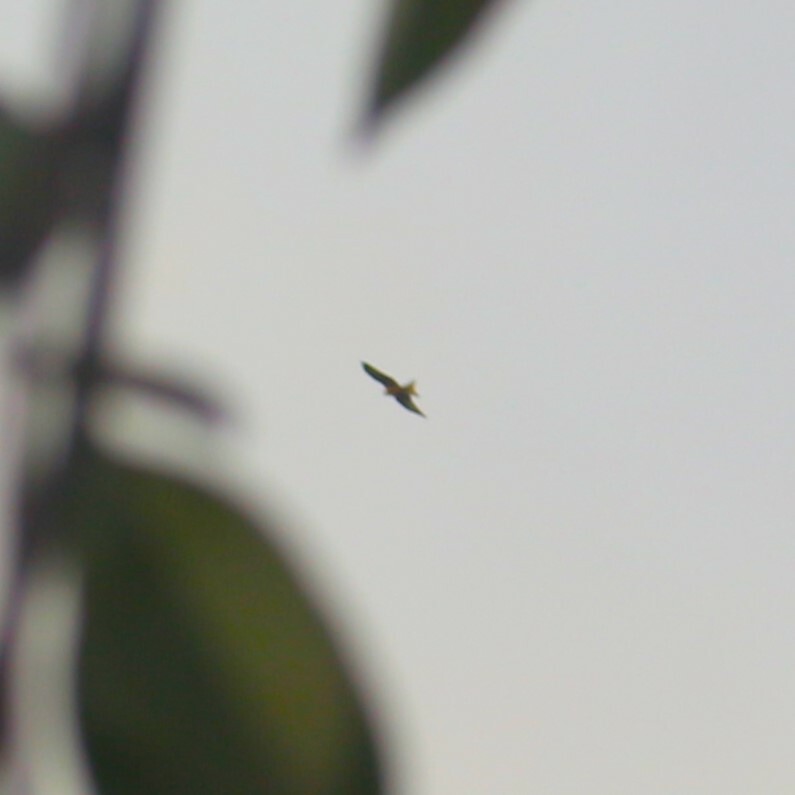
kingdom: Animalia
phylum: Chordata
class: Aves
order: Accipitriformes
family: Accipitridae
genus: Milvus
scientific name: Milvus milvus
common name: Red kite
